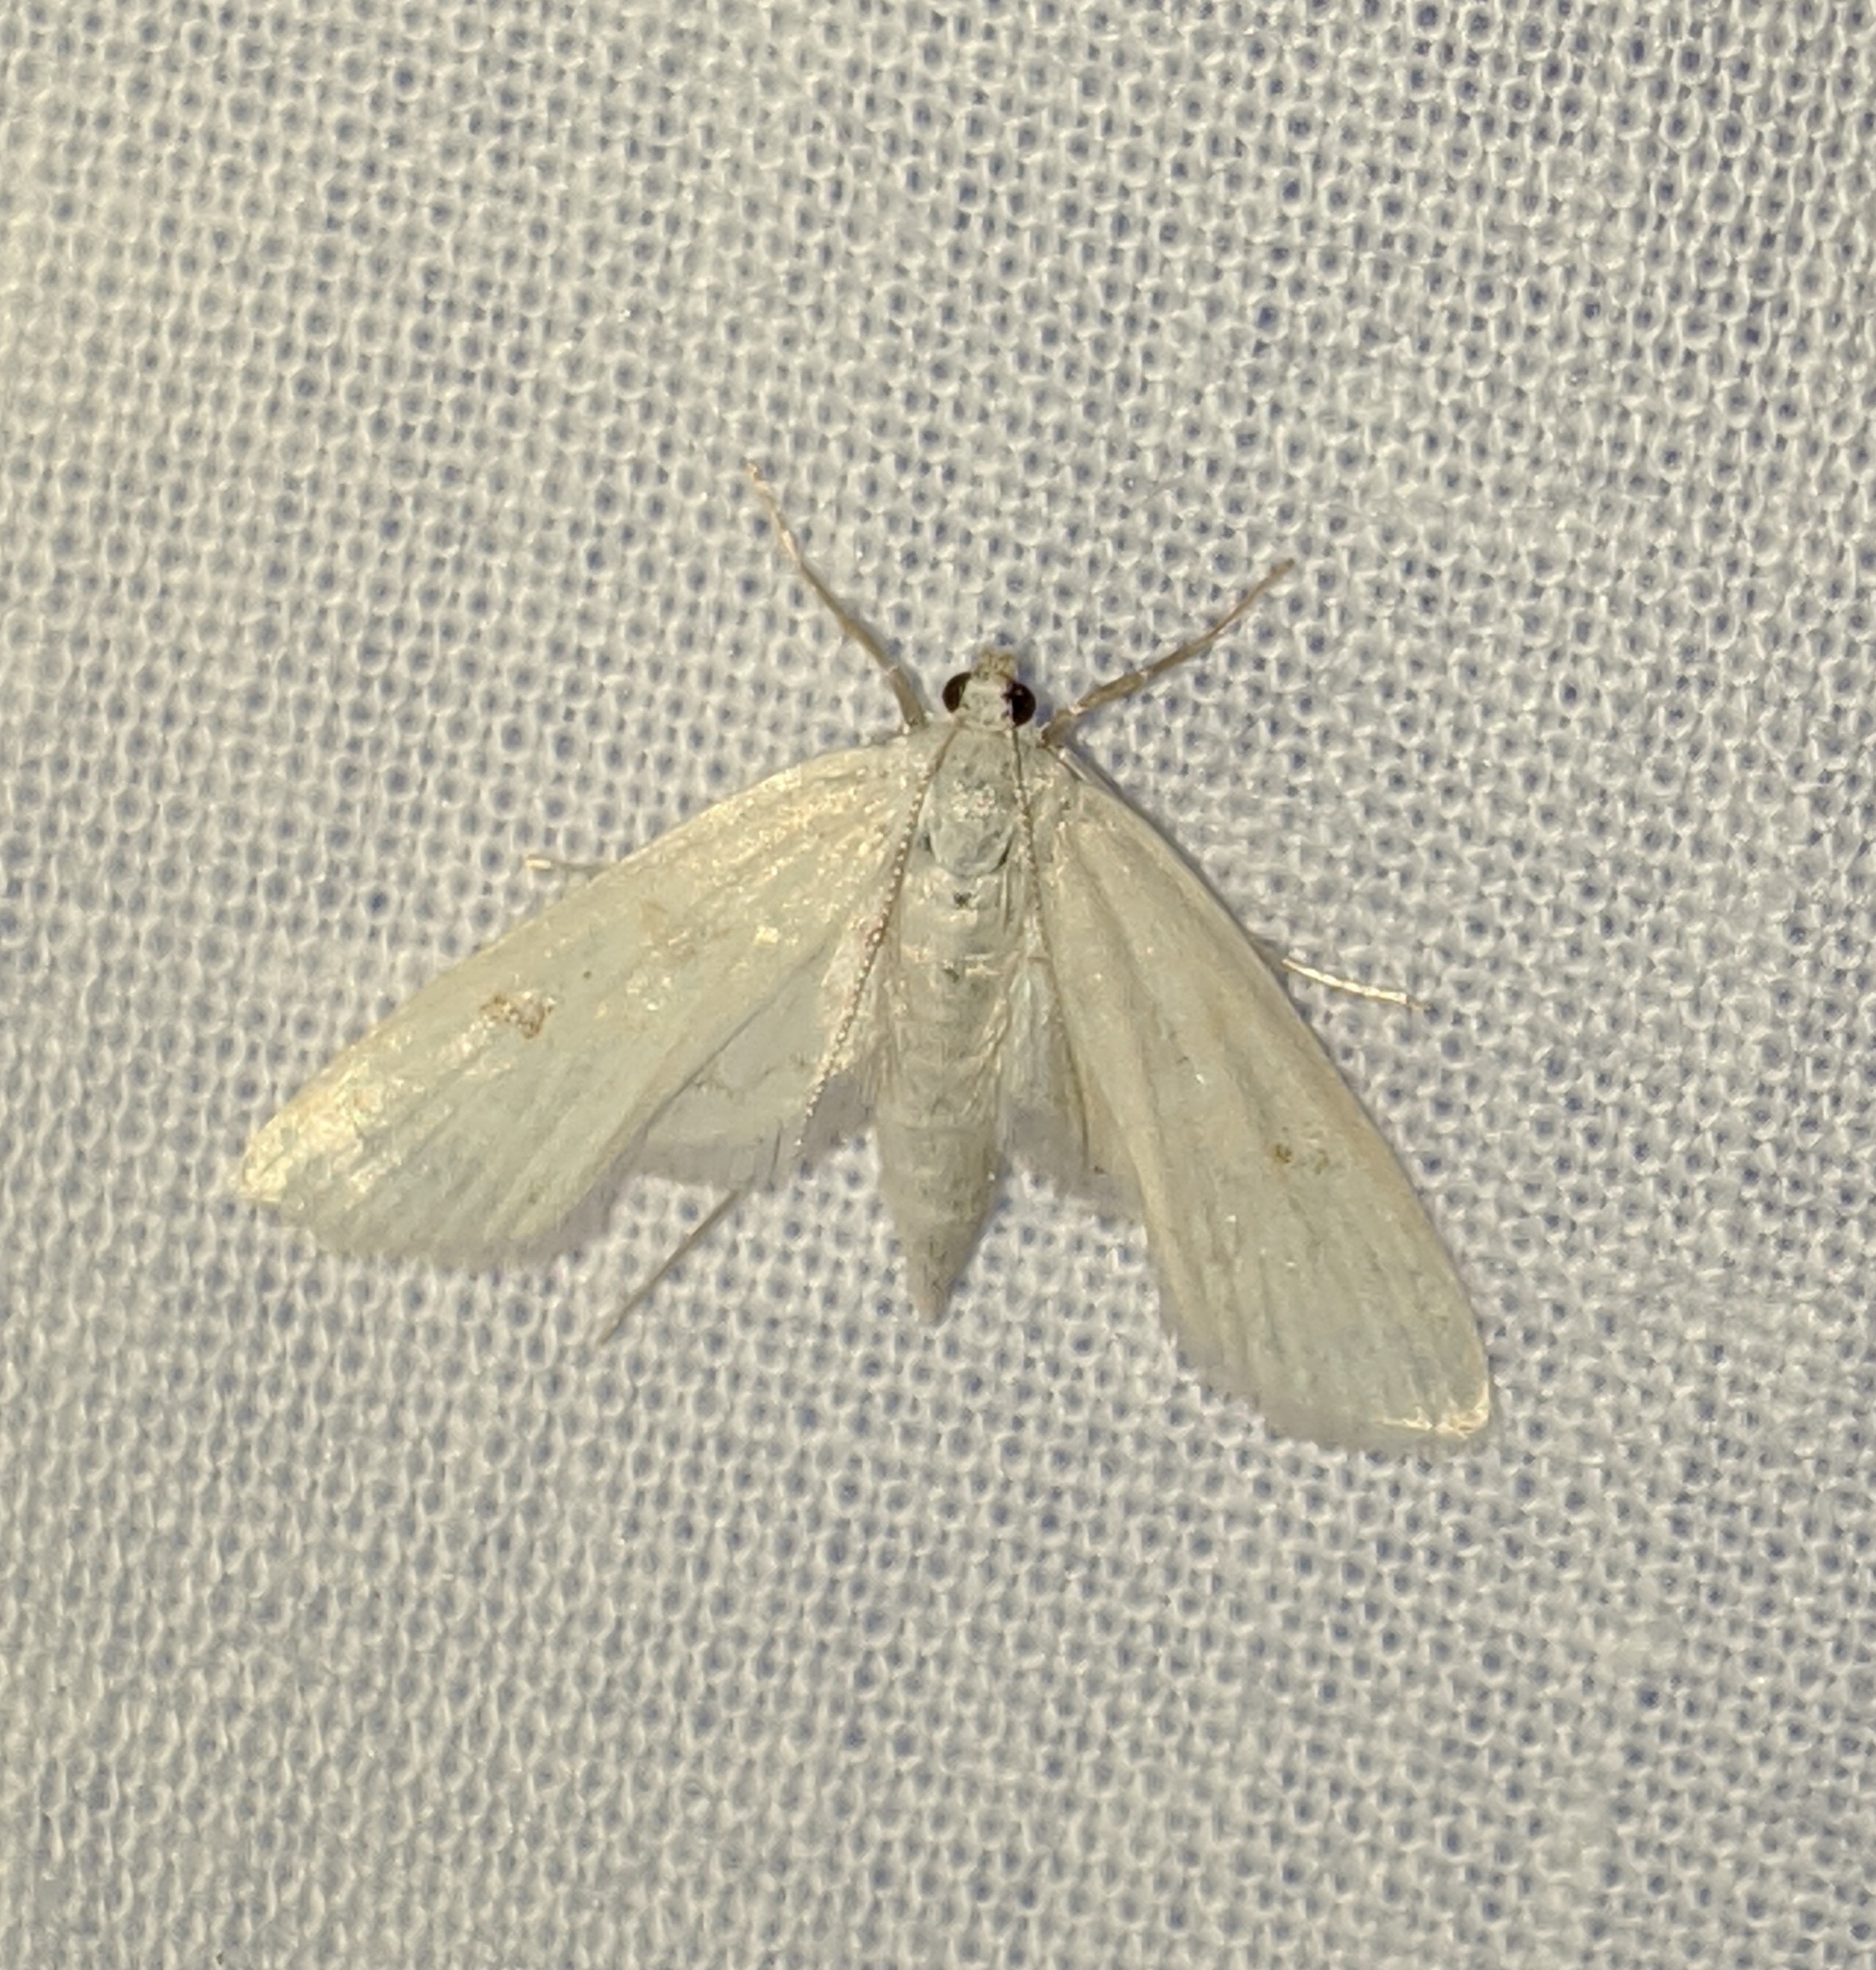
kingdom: Animalia
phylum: Arthropoda
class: Insecta
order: Lepidoptera
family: Crambidae
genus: Parapoynx
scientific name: Parapoynx allionealis
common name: Bladderwort casemaker
